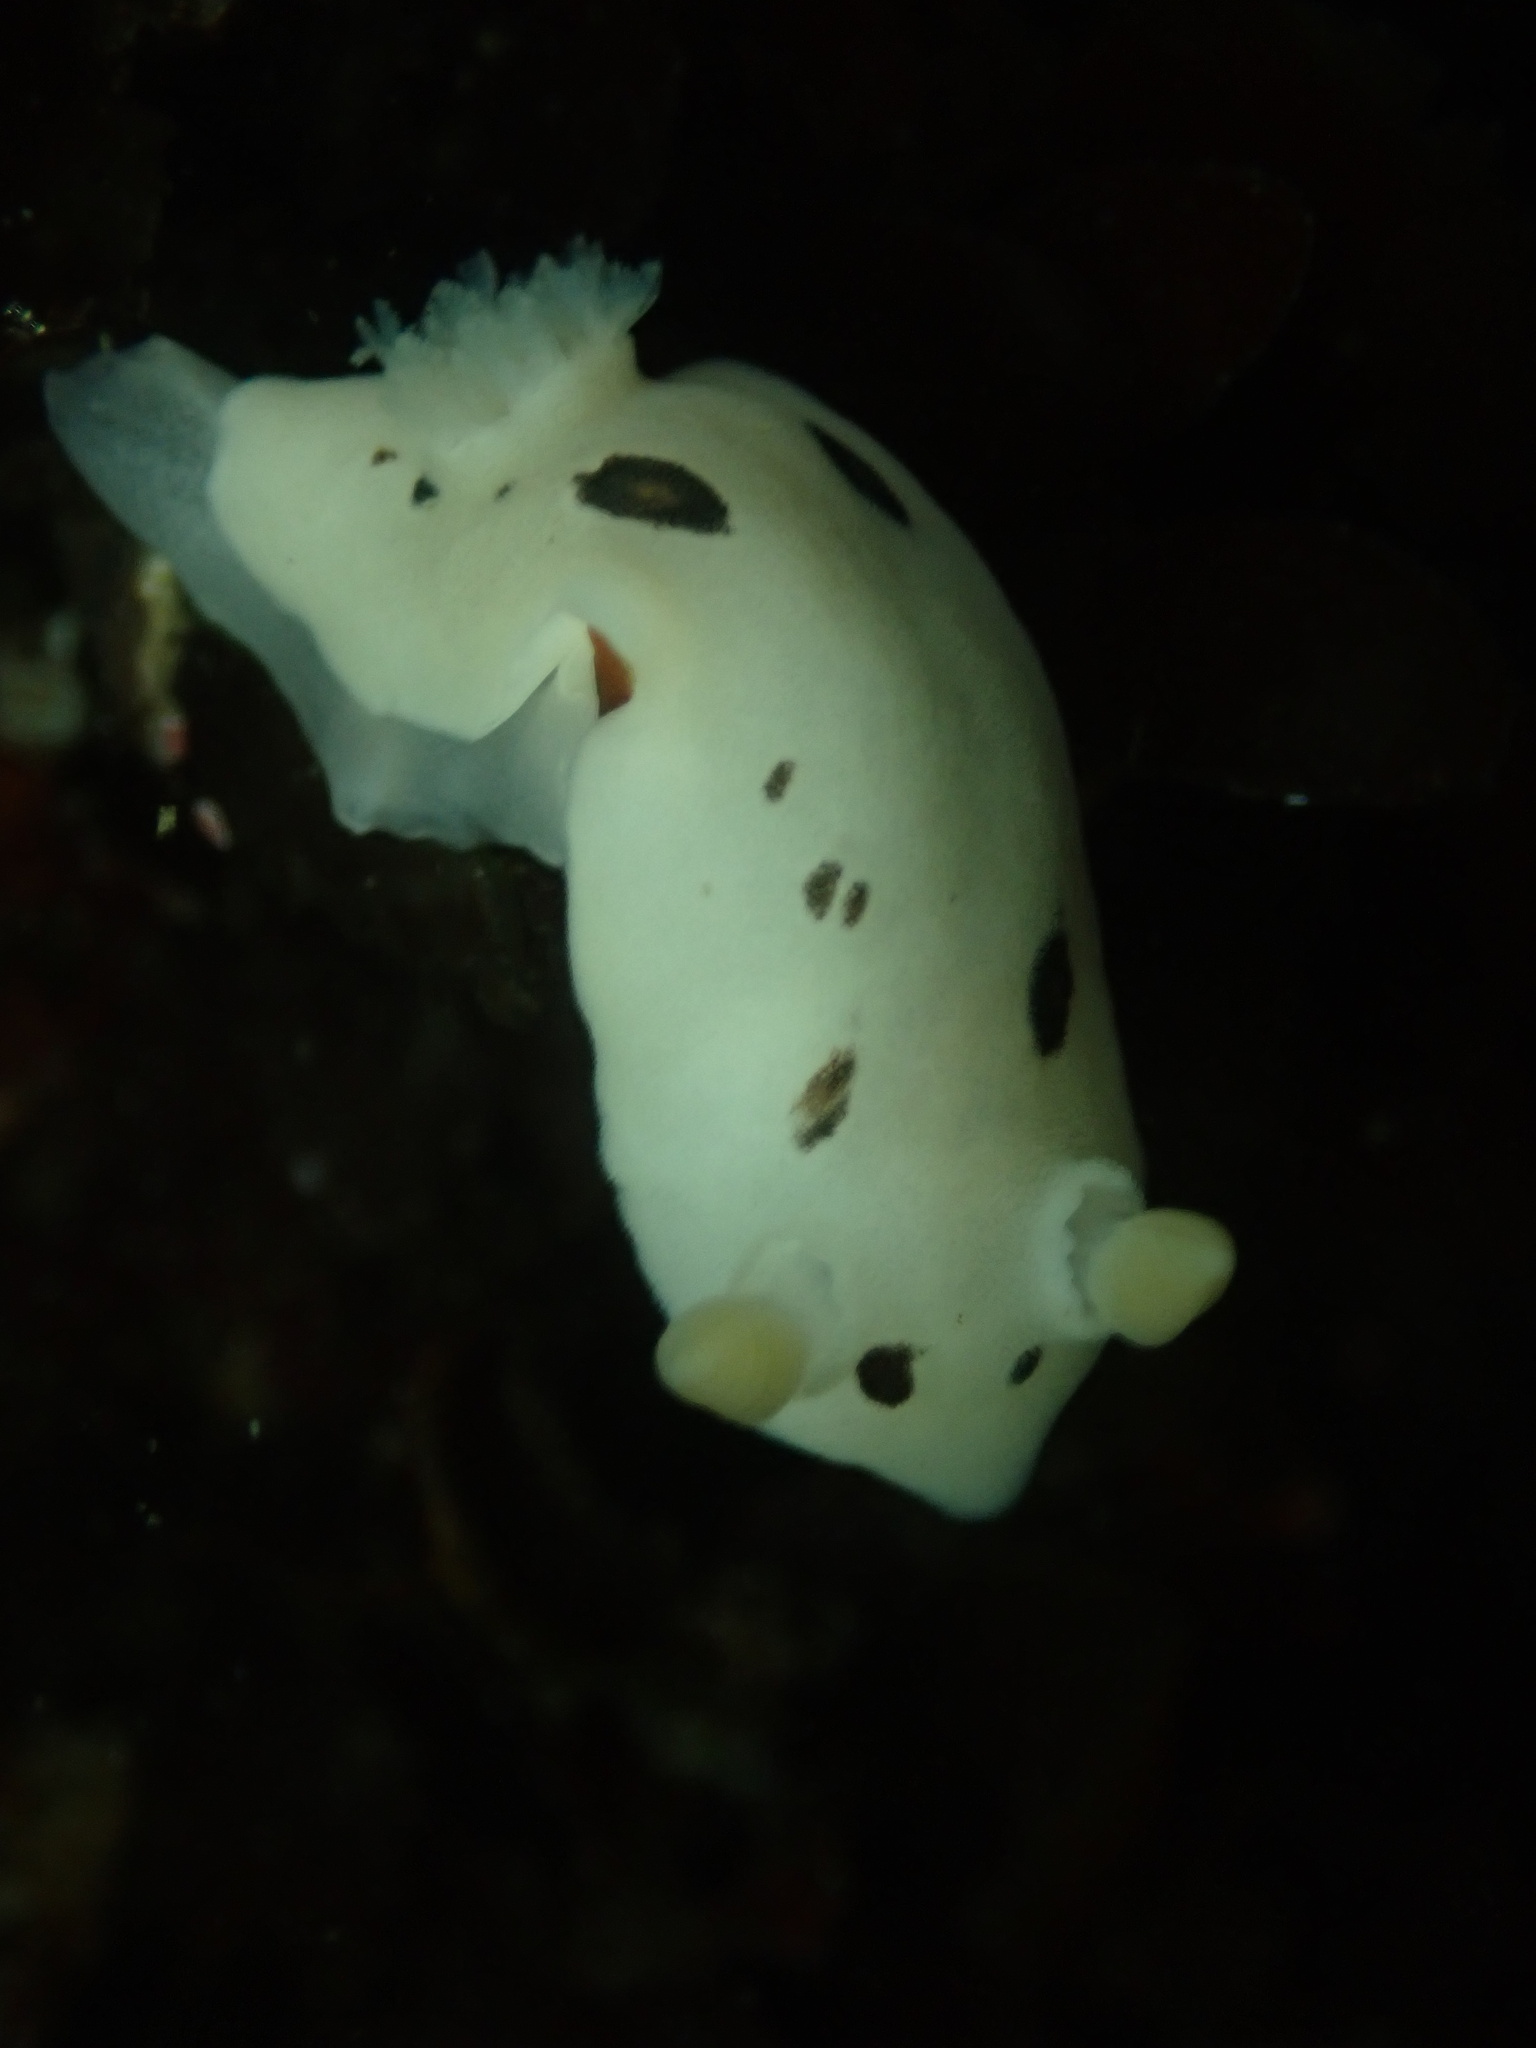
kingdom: Animalia
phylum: Mollusca
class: Gastropoda
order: Nudibranchia
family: Discodorididae
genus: Diaulula
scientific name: Diaulula sandiegensis
